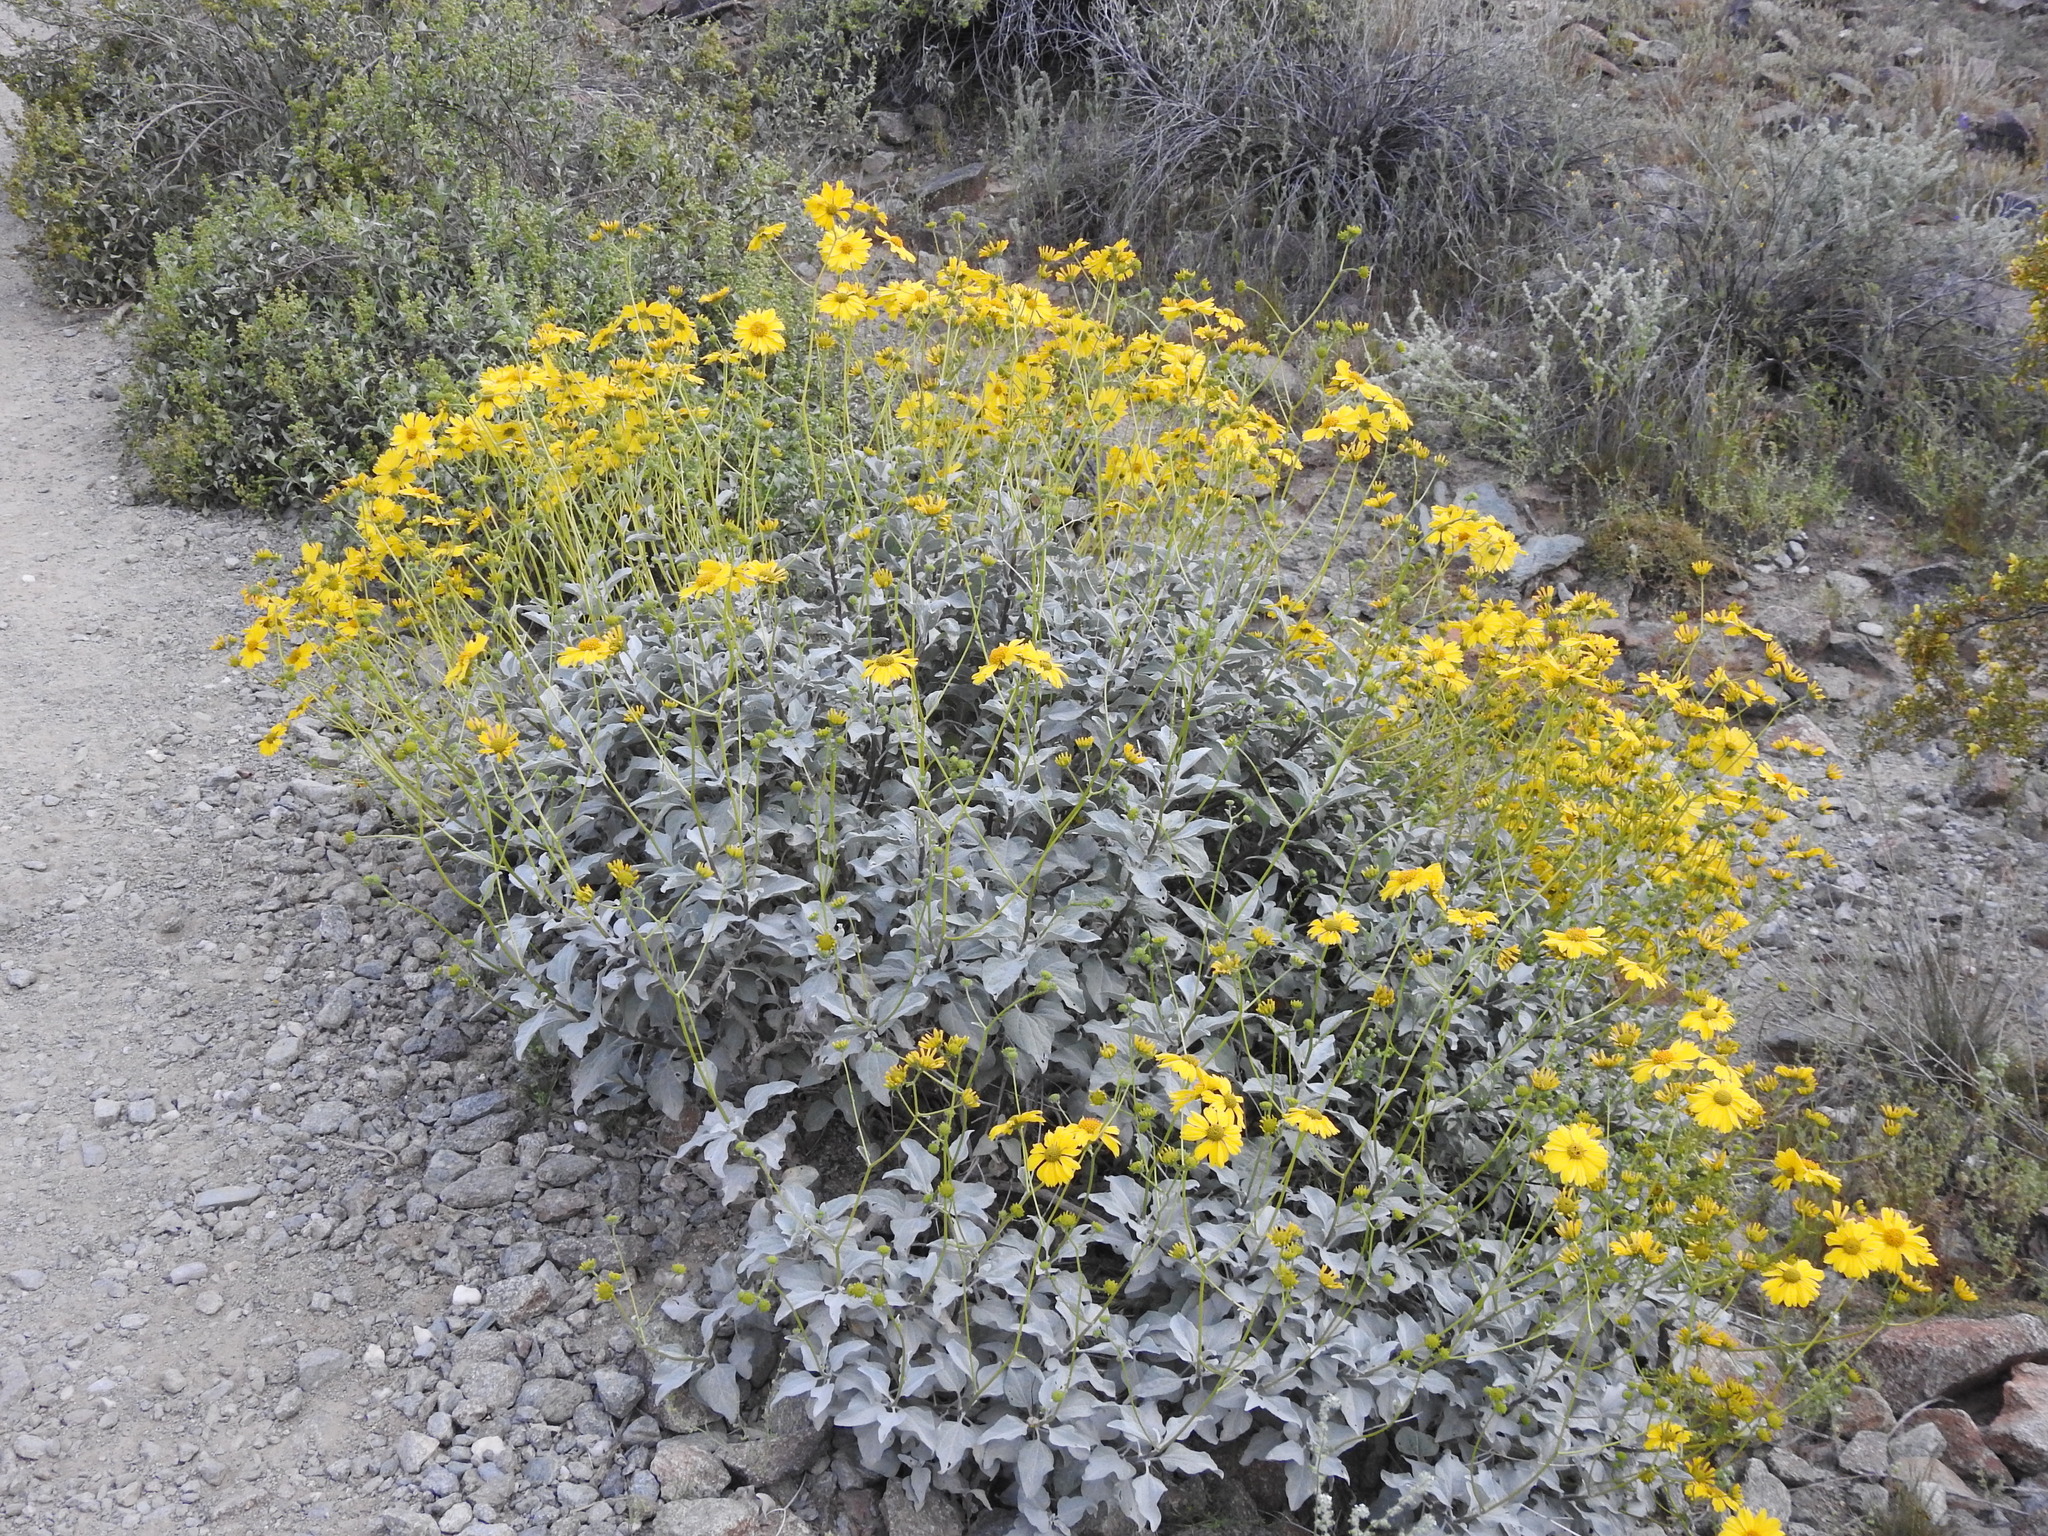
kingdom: Plantae
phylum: Tracheophyta
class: Magnoliopsida
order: Asterales
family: Asteraceae
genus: Encelia
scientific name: Encelia farinosa
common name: Brittlebush
